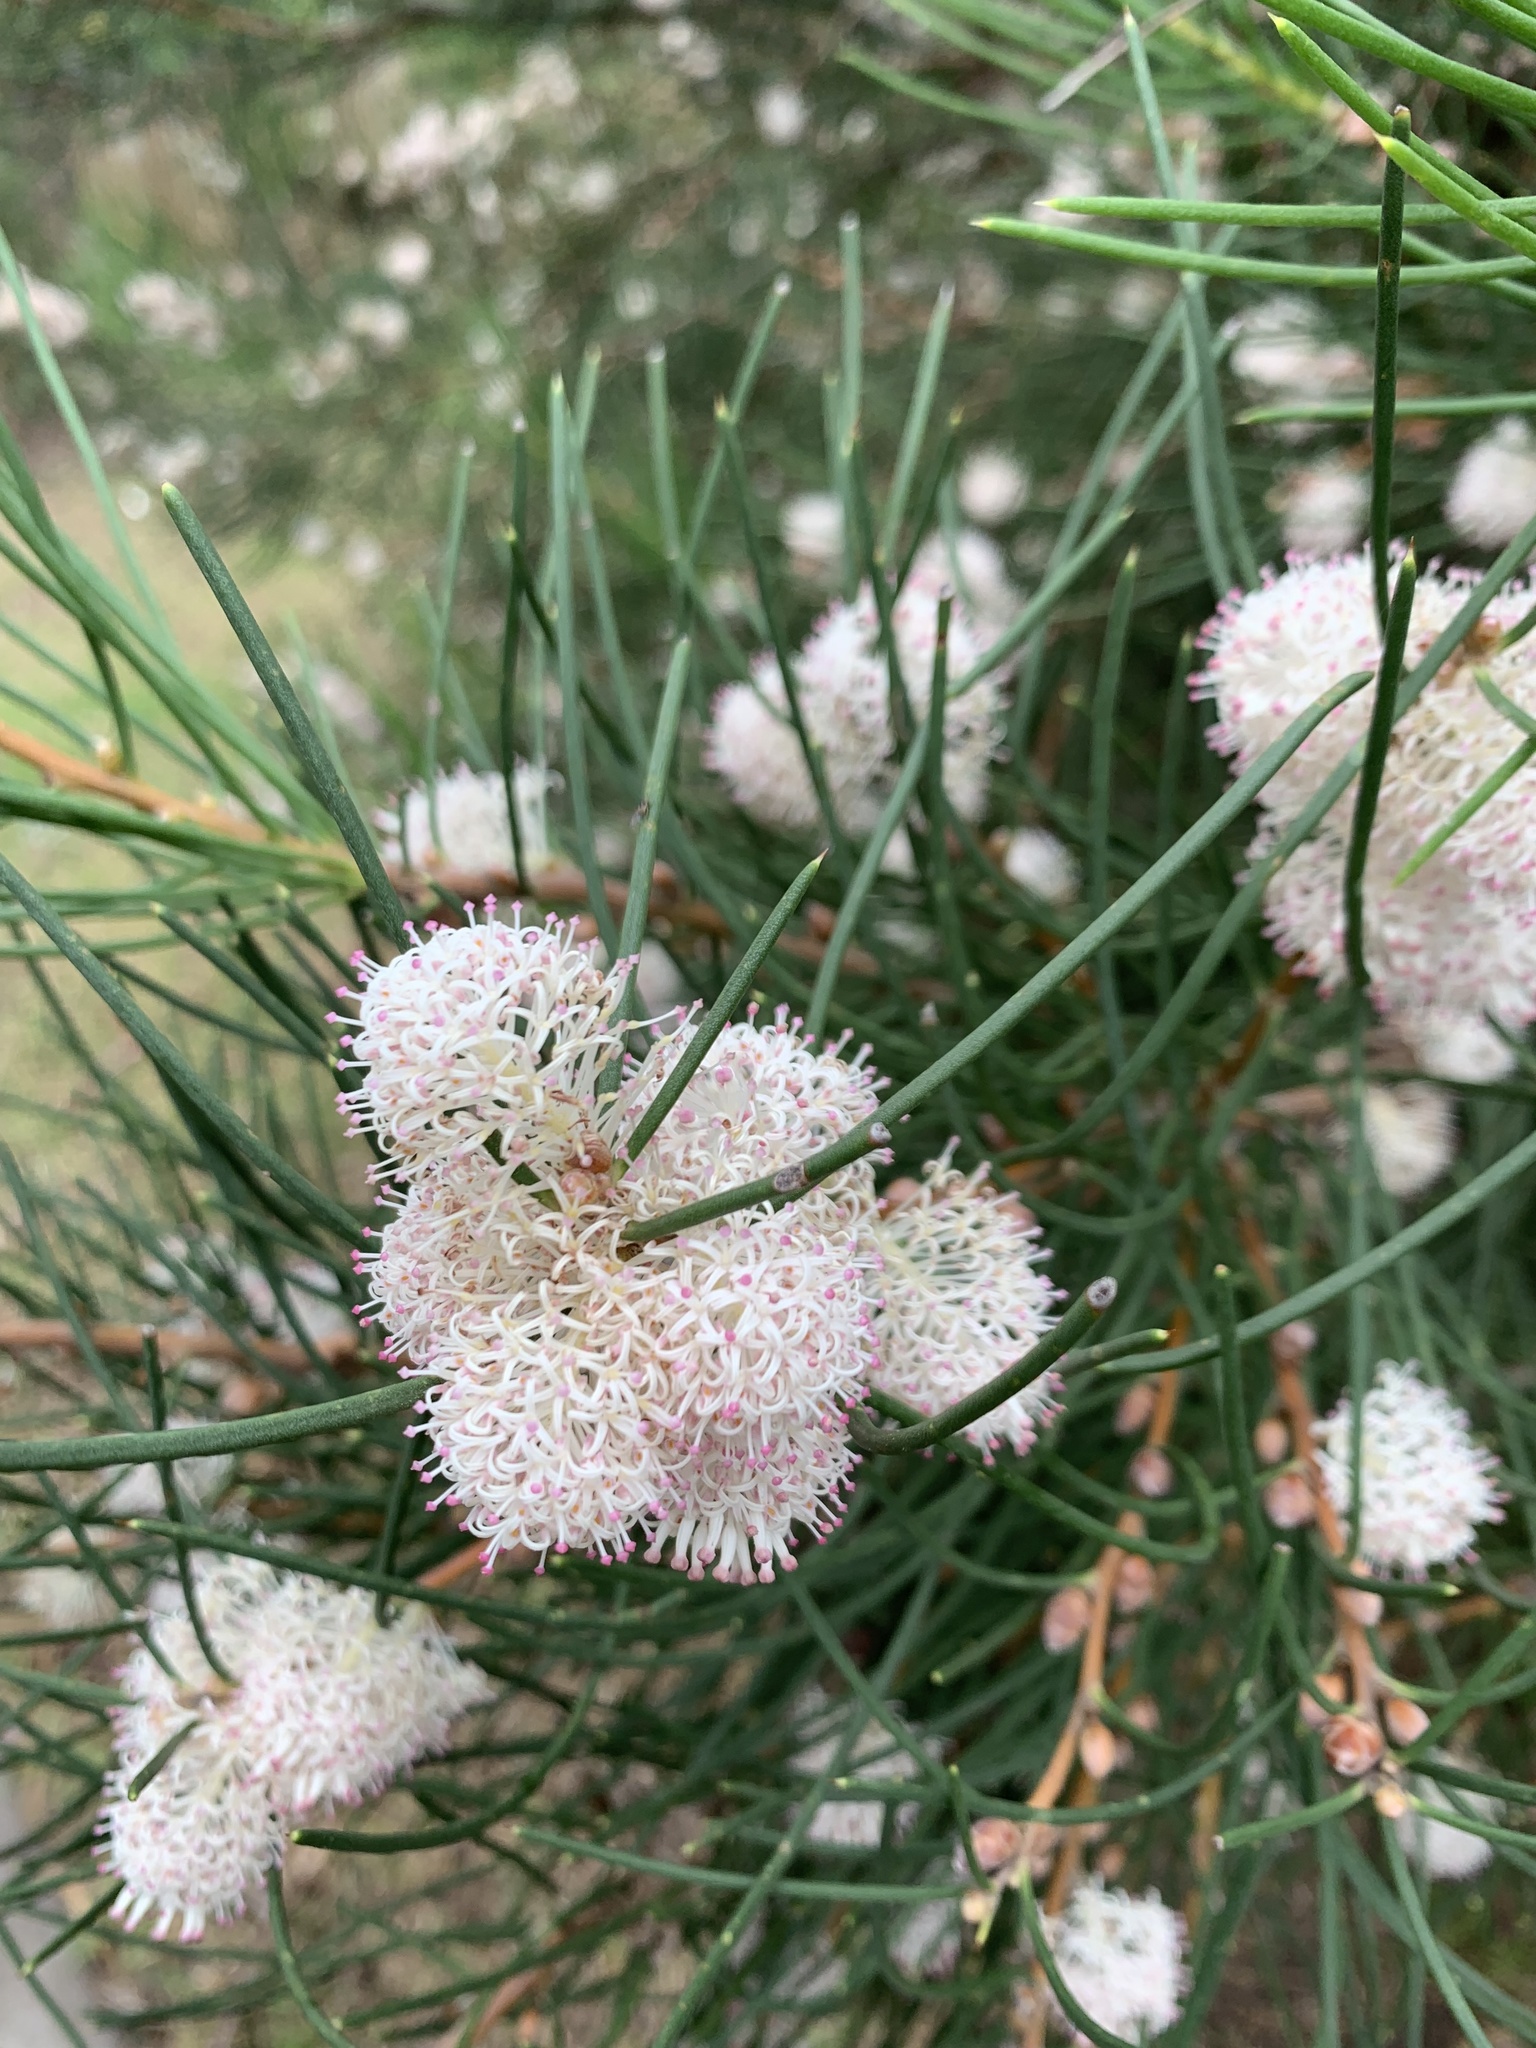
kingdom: Plantae
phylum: Tracheophyta
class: Magnoliopsida
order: Proteales
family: Proteaceae
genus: Hakea
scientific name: Hakea drupacea
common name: Sweet hakea
